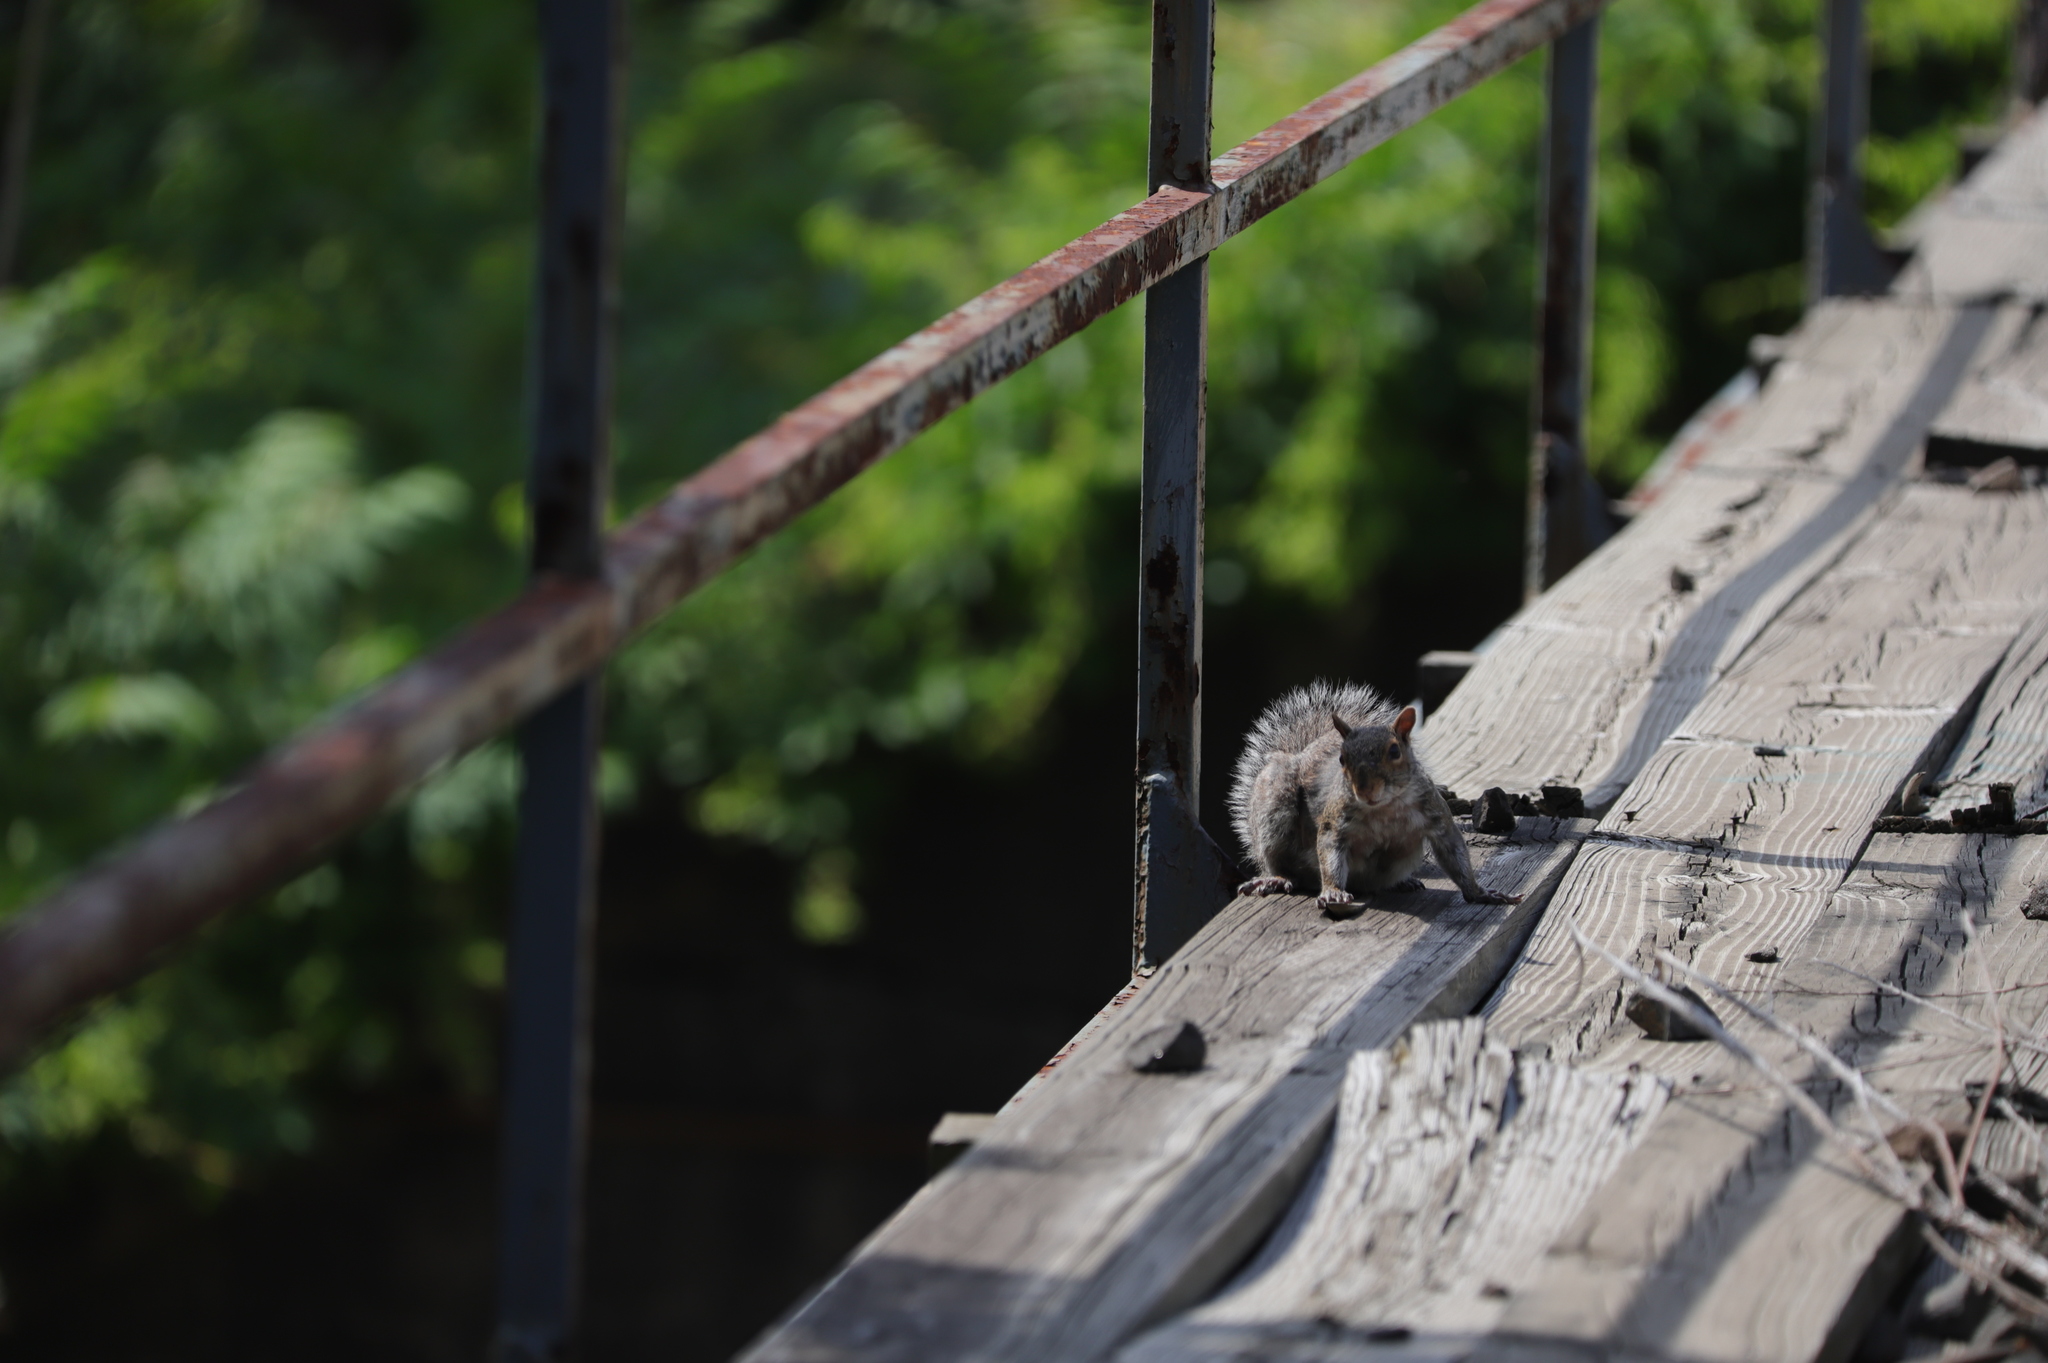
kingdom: Animalia
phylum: Chordata
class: Mammalia
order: Rodentia
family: Sciuridae
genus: Sciurus
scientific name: Sciurus carolinensis
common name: Eastern gray squirrel
